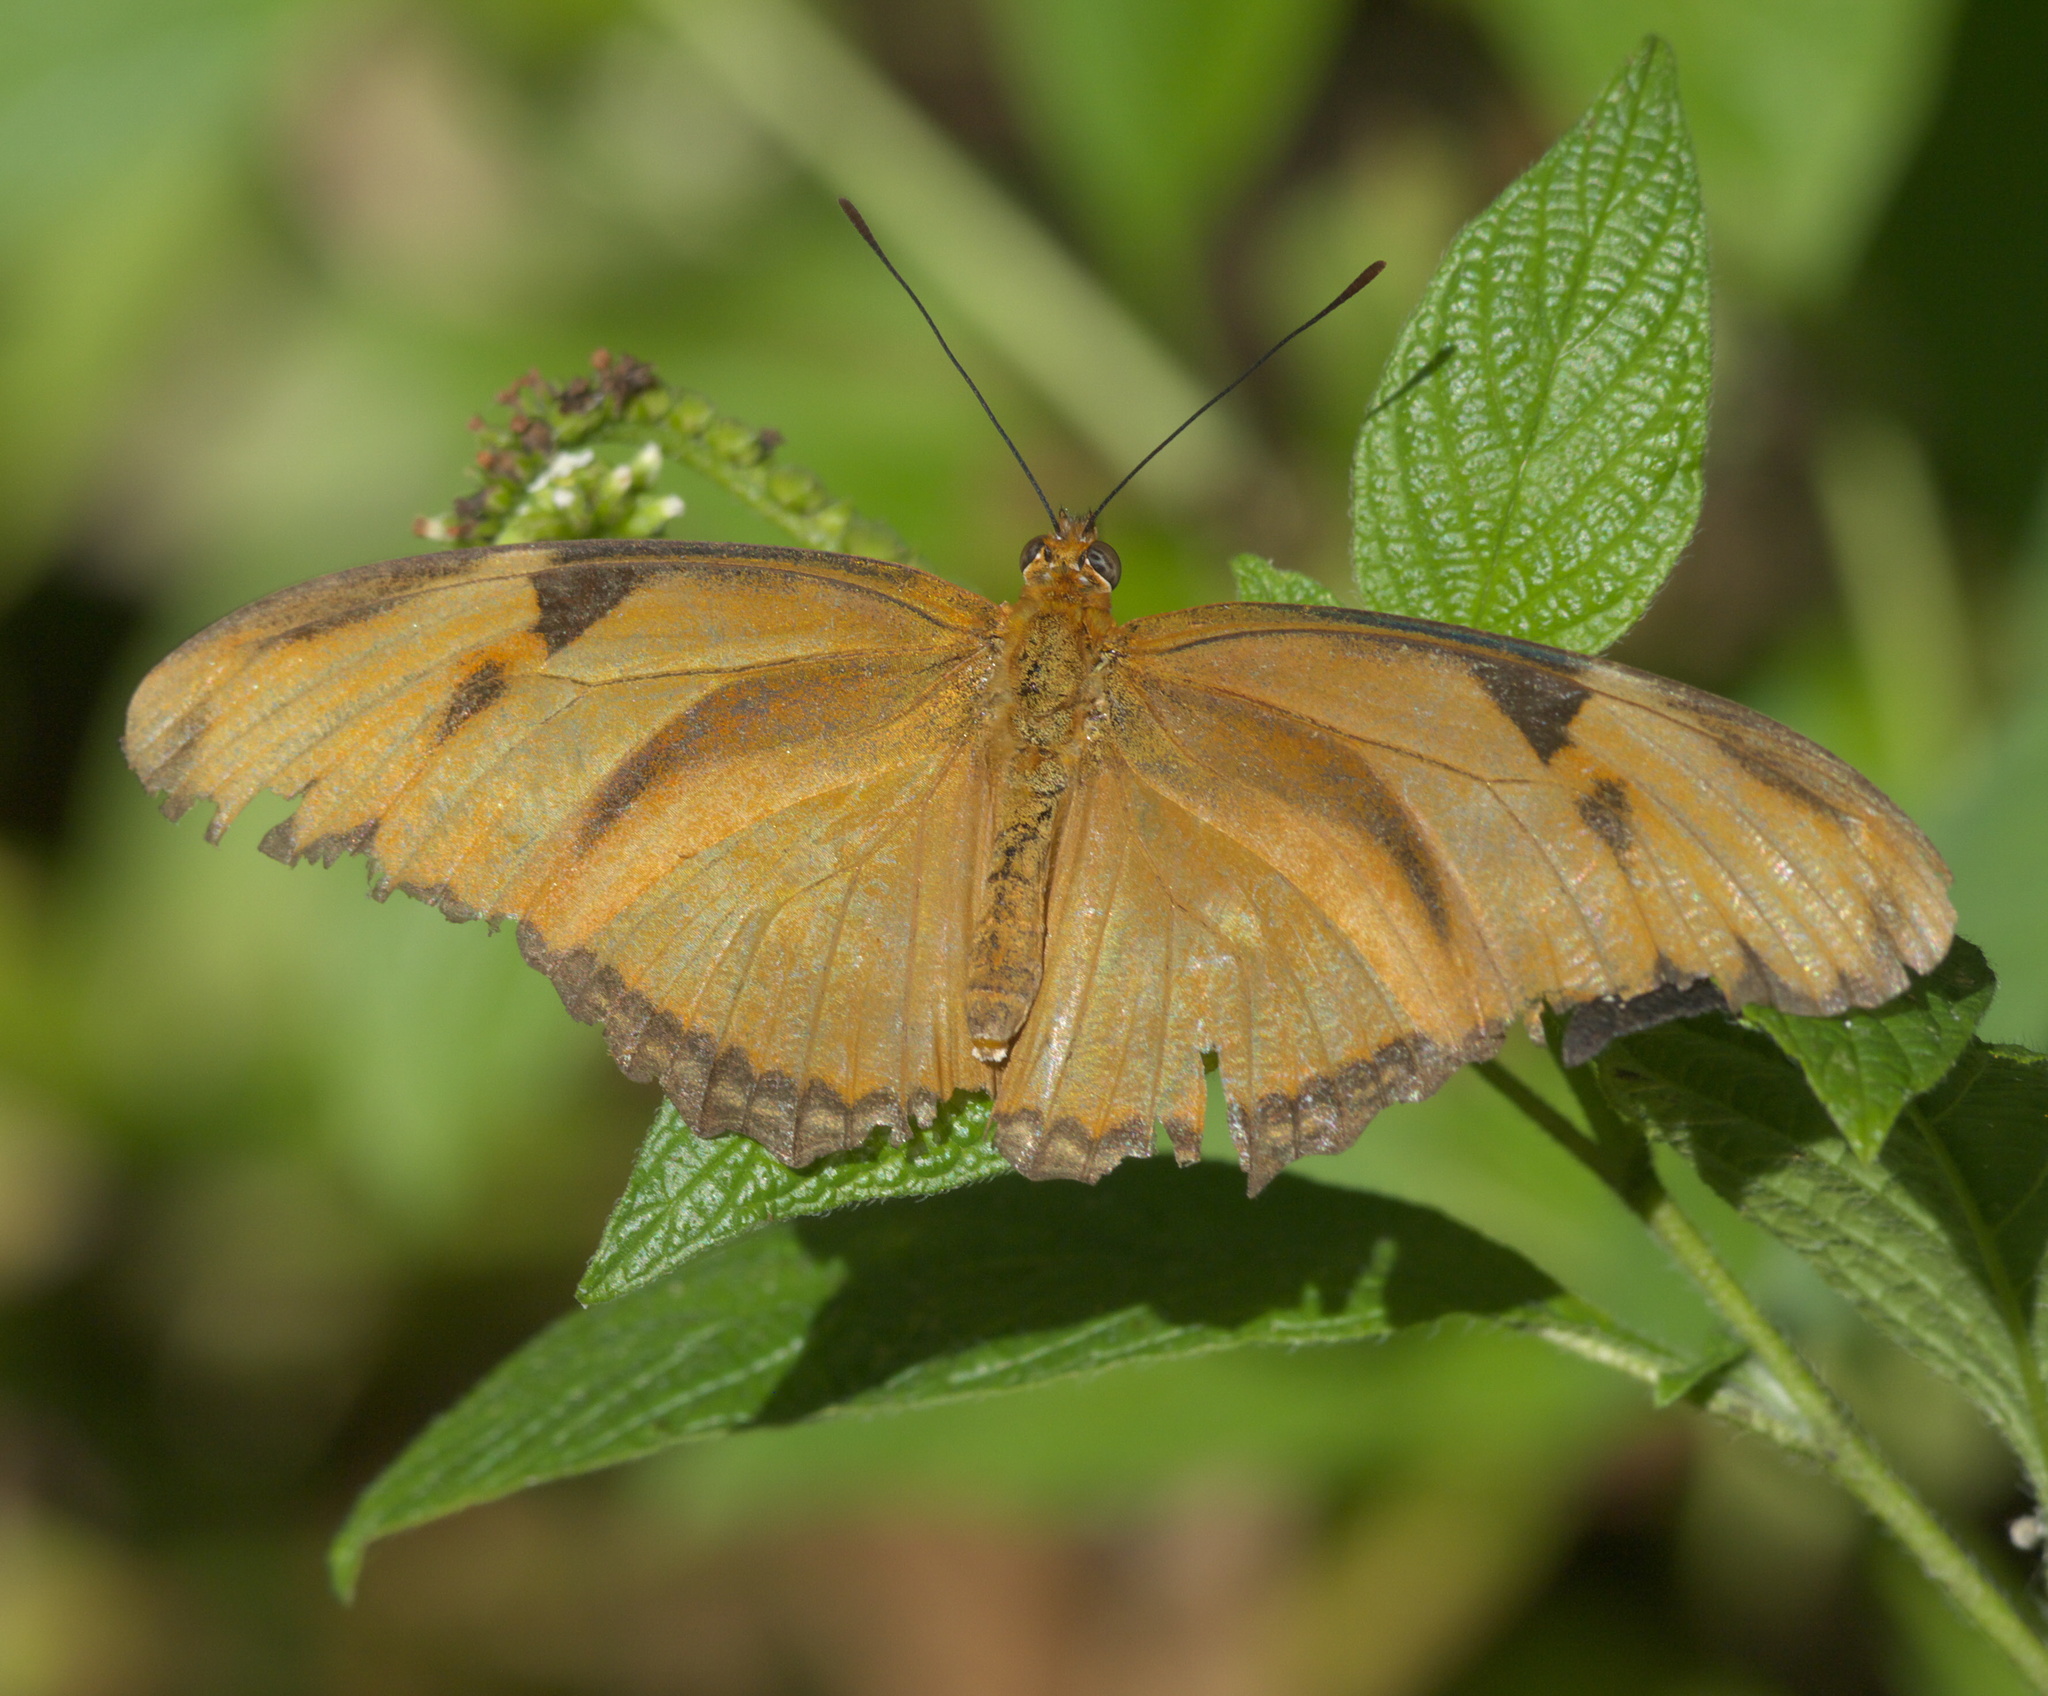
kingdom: Animalia
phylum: Arthropoda
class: Insecta
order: Lepidoptera
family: Nymphalidae
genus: Dryas
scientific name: Dryas iulia
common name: Flambeau
